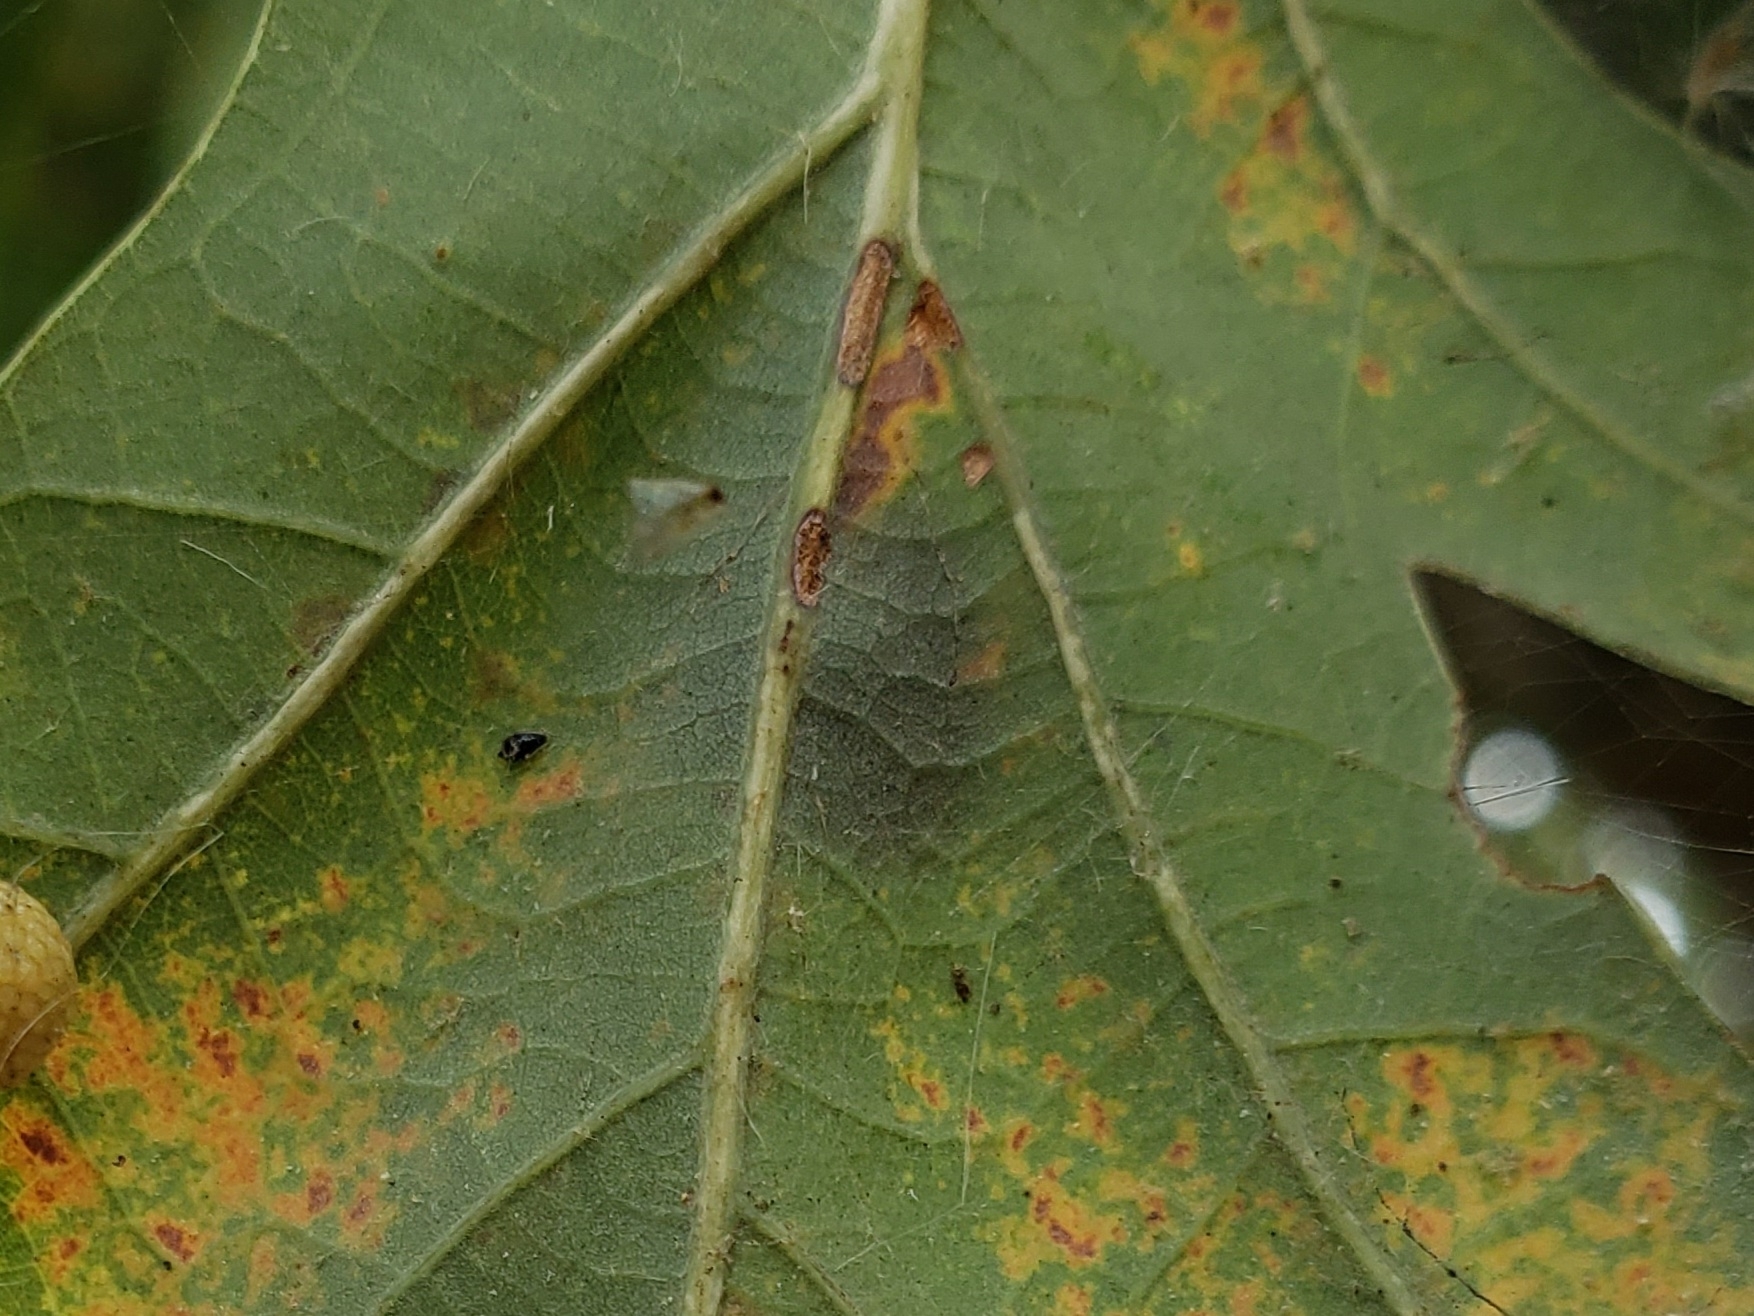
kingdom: Animalia
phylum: Arthropoda
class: Insecta
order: Hymenoptera
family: Cynipidae
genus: Andricus
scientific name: Andricus quercusflocci
